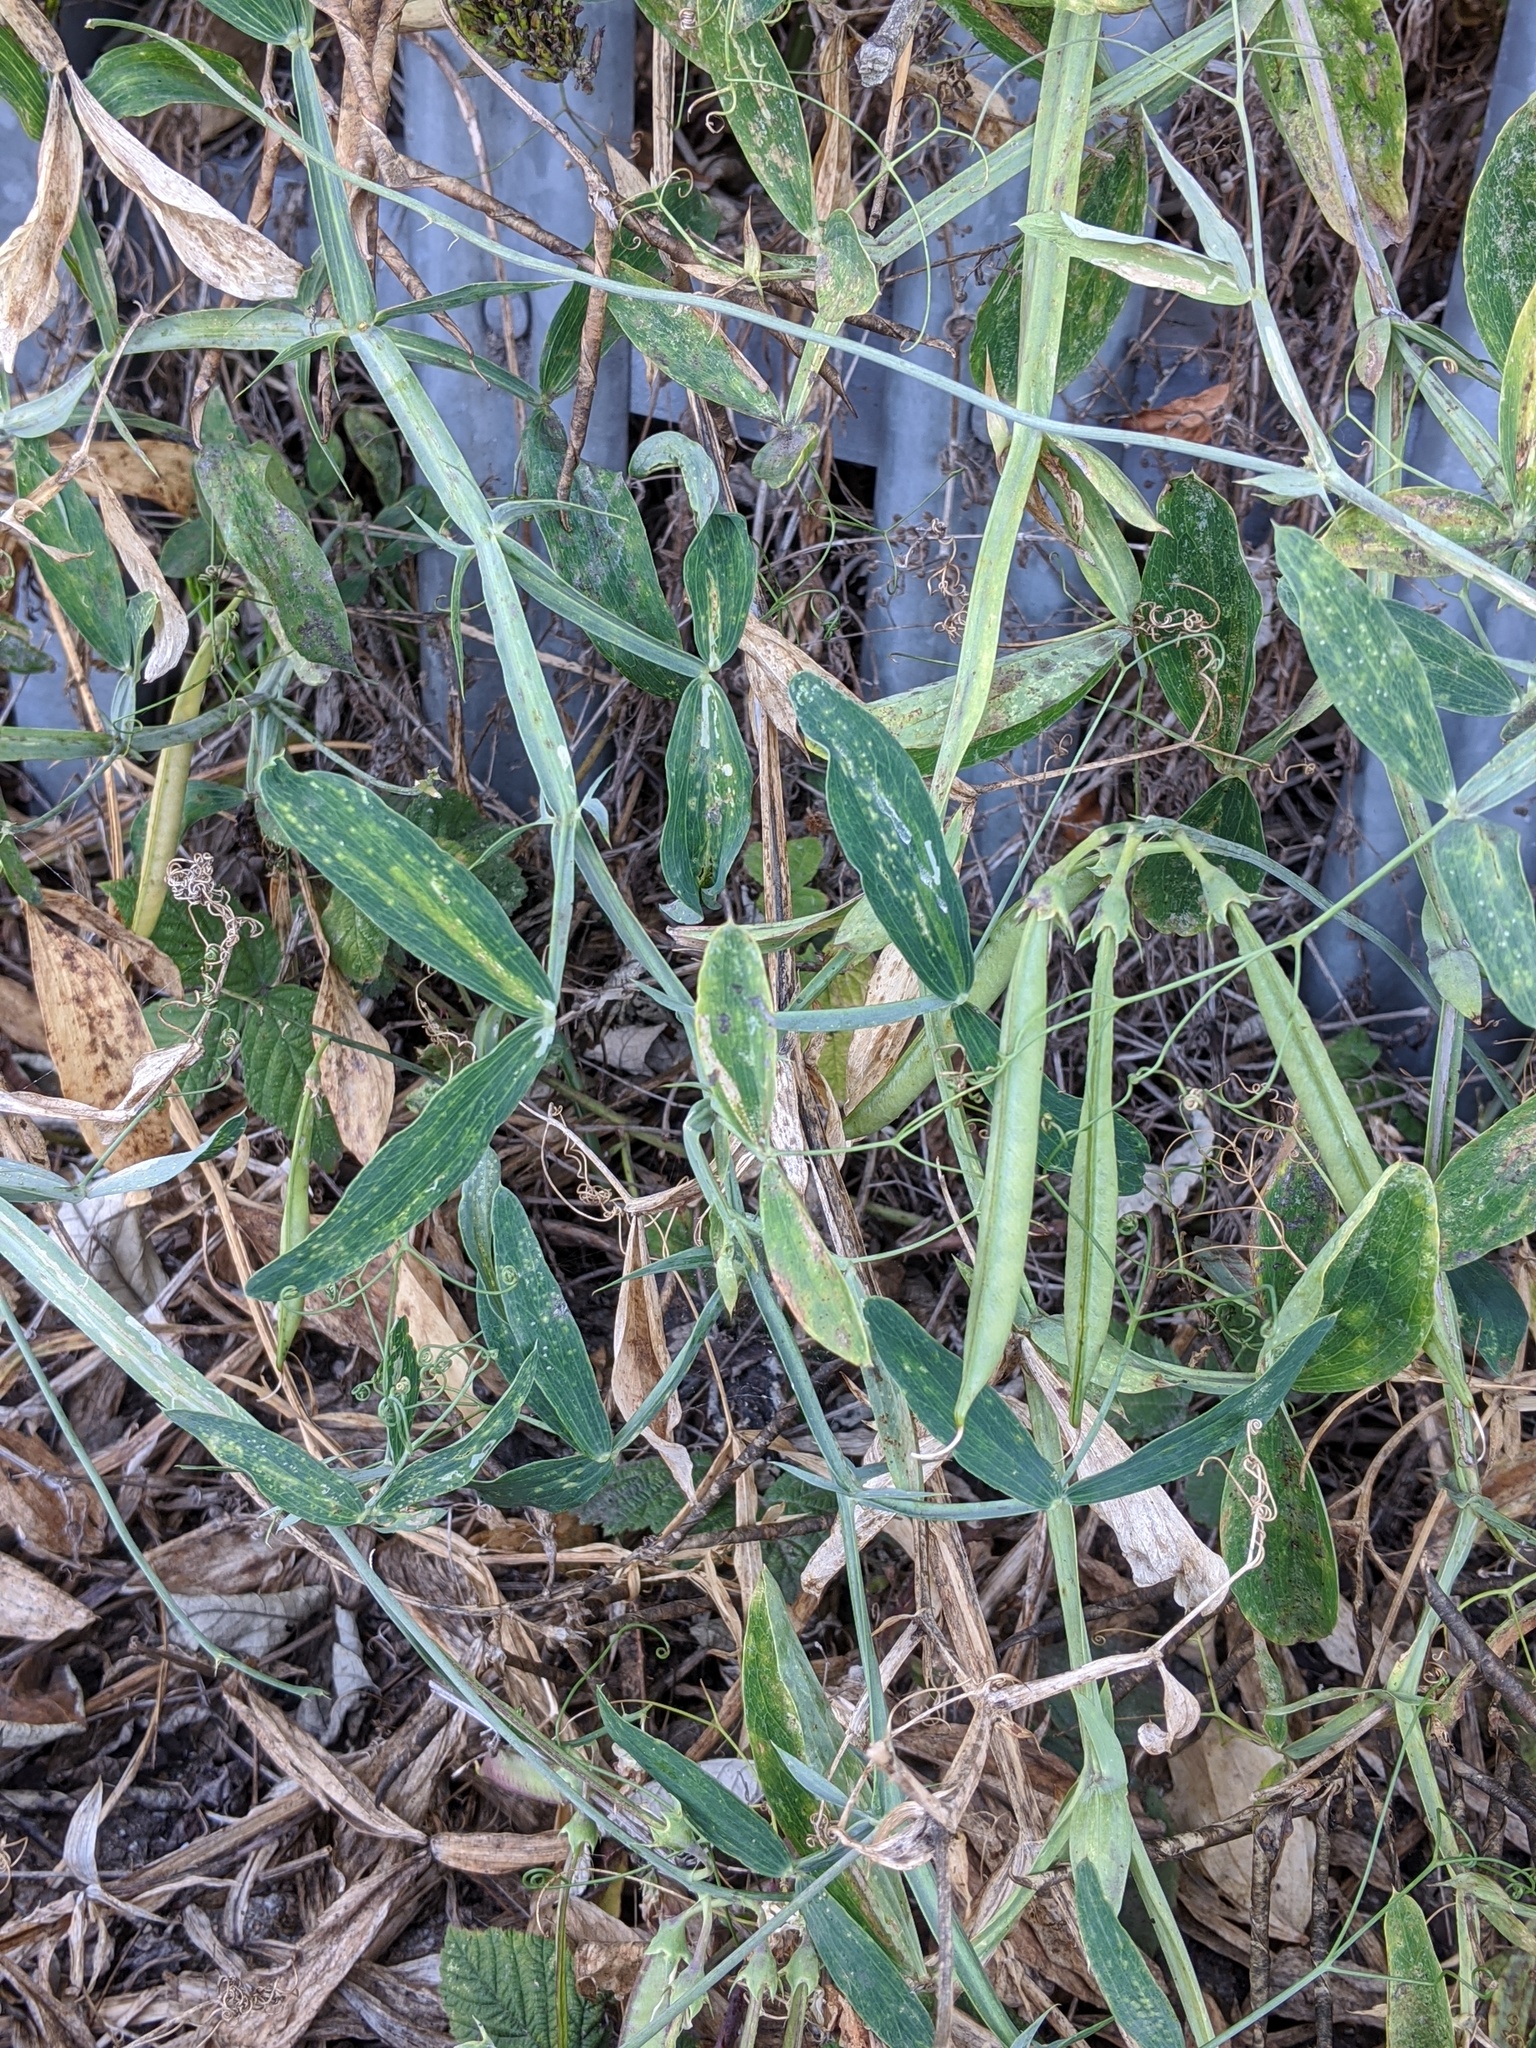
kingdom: Plantae
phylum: Tracheophyta
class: Magnoliopsida
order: Fabales
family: Fabaceae
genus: Lathyrus
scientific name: Lathyrus latifolius
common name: Perennial pea
